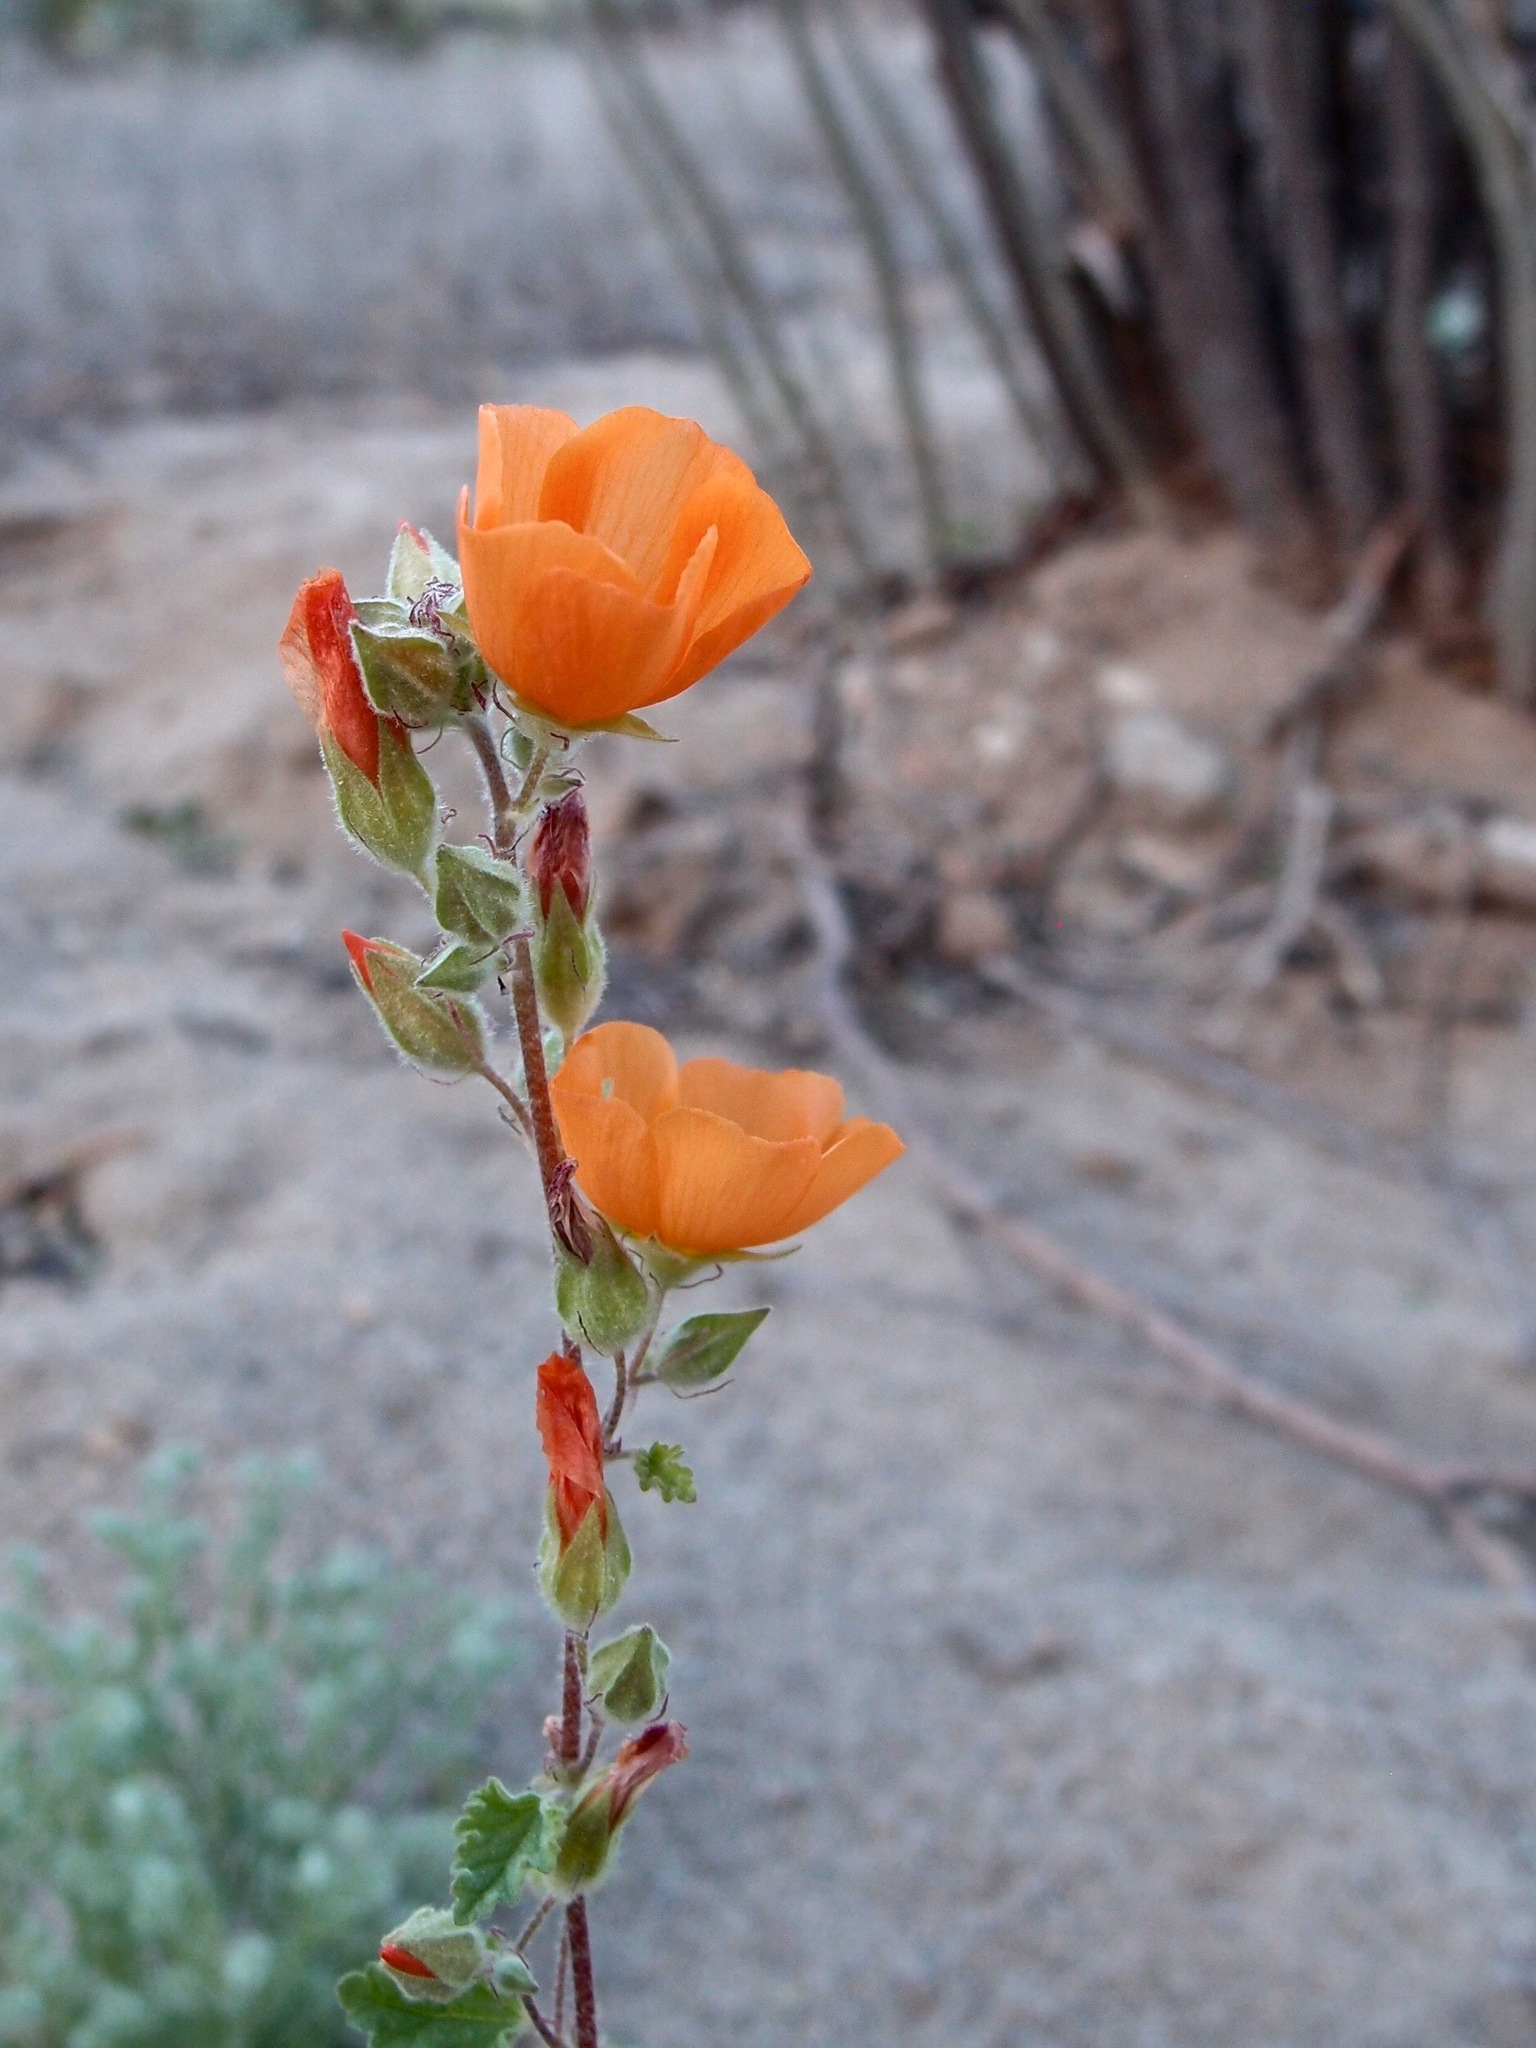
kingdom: Plantae
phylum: Tracheophyta
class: Magnoliopsida
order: Malvales
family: Malvaceae
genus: Sphaeralcea
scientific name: Sphaeralcea coulteri
